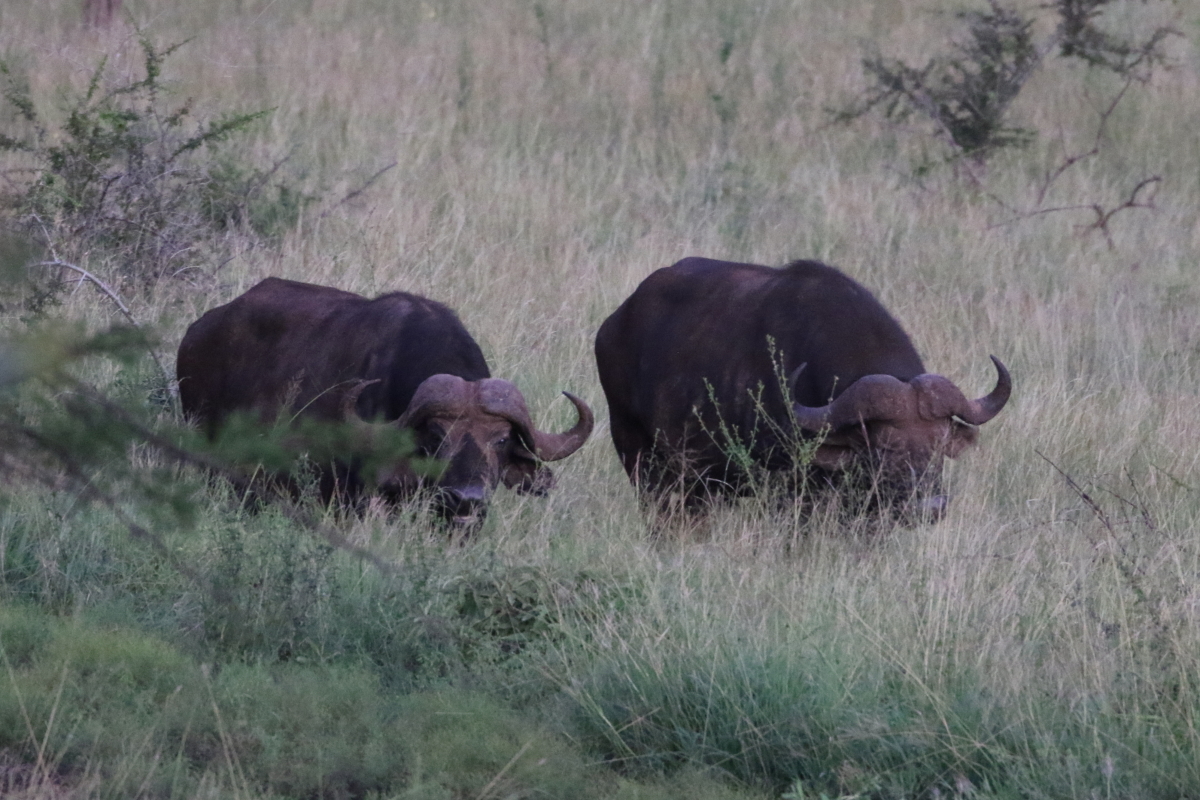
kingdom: Animalia
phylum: Chordata
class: Mammalia
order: Artiodactyla
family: Bovidae
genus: Syncerus
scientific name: Syncerus caffer
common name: African buffalo
